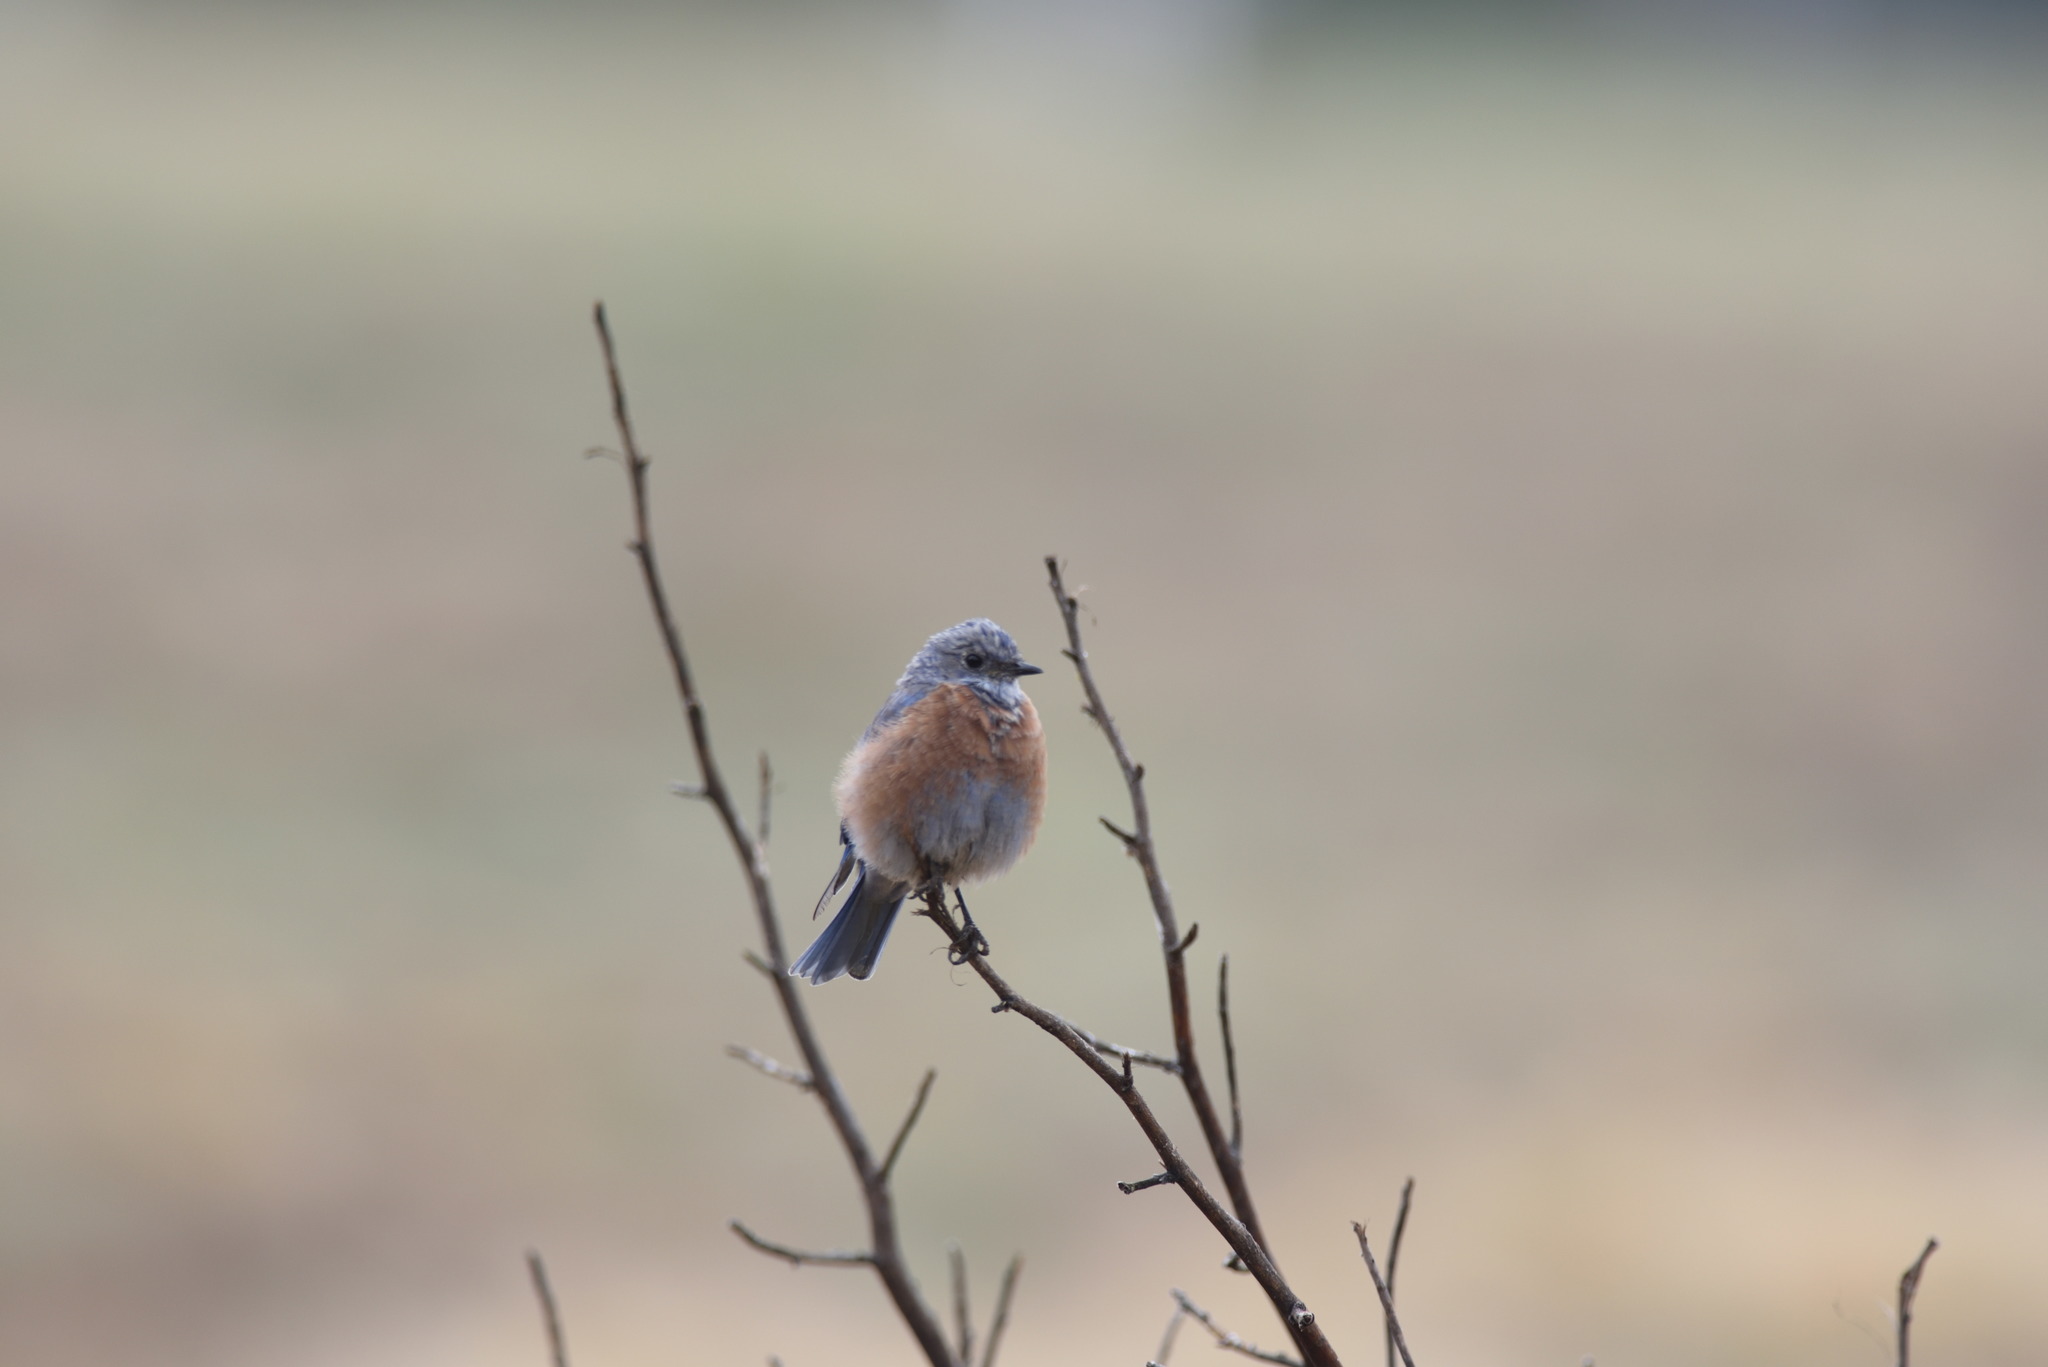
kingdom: Animalia
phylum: Chordata
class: Aves
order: Passeriformes
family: Turdidae
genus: Sialia
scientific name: Sialia mexicana
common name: Western bluebird
